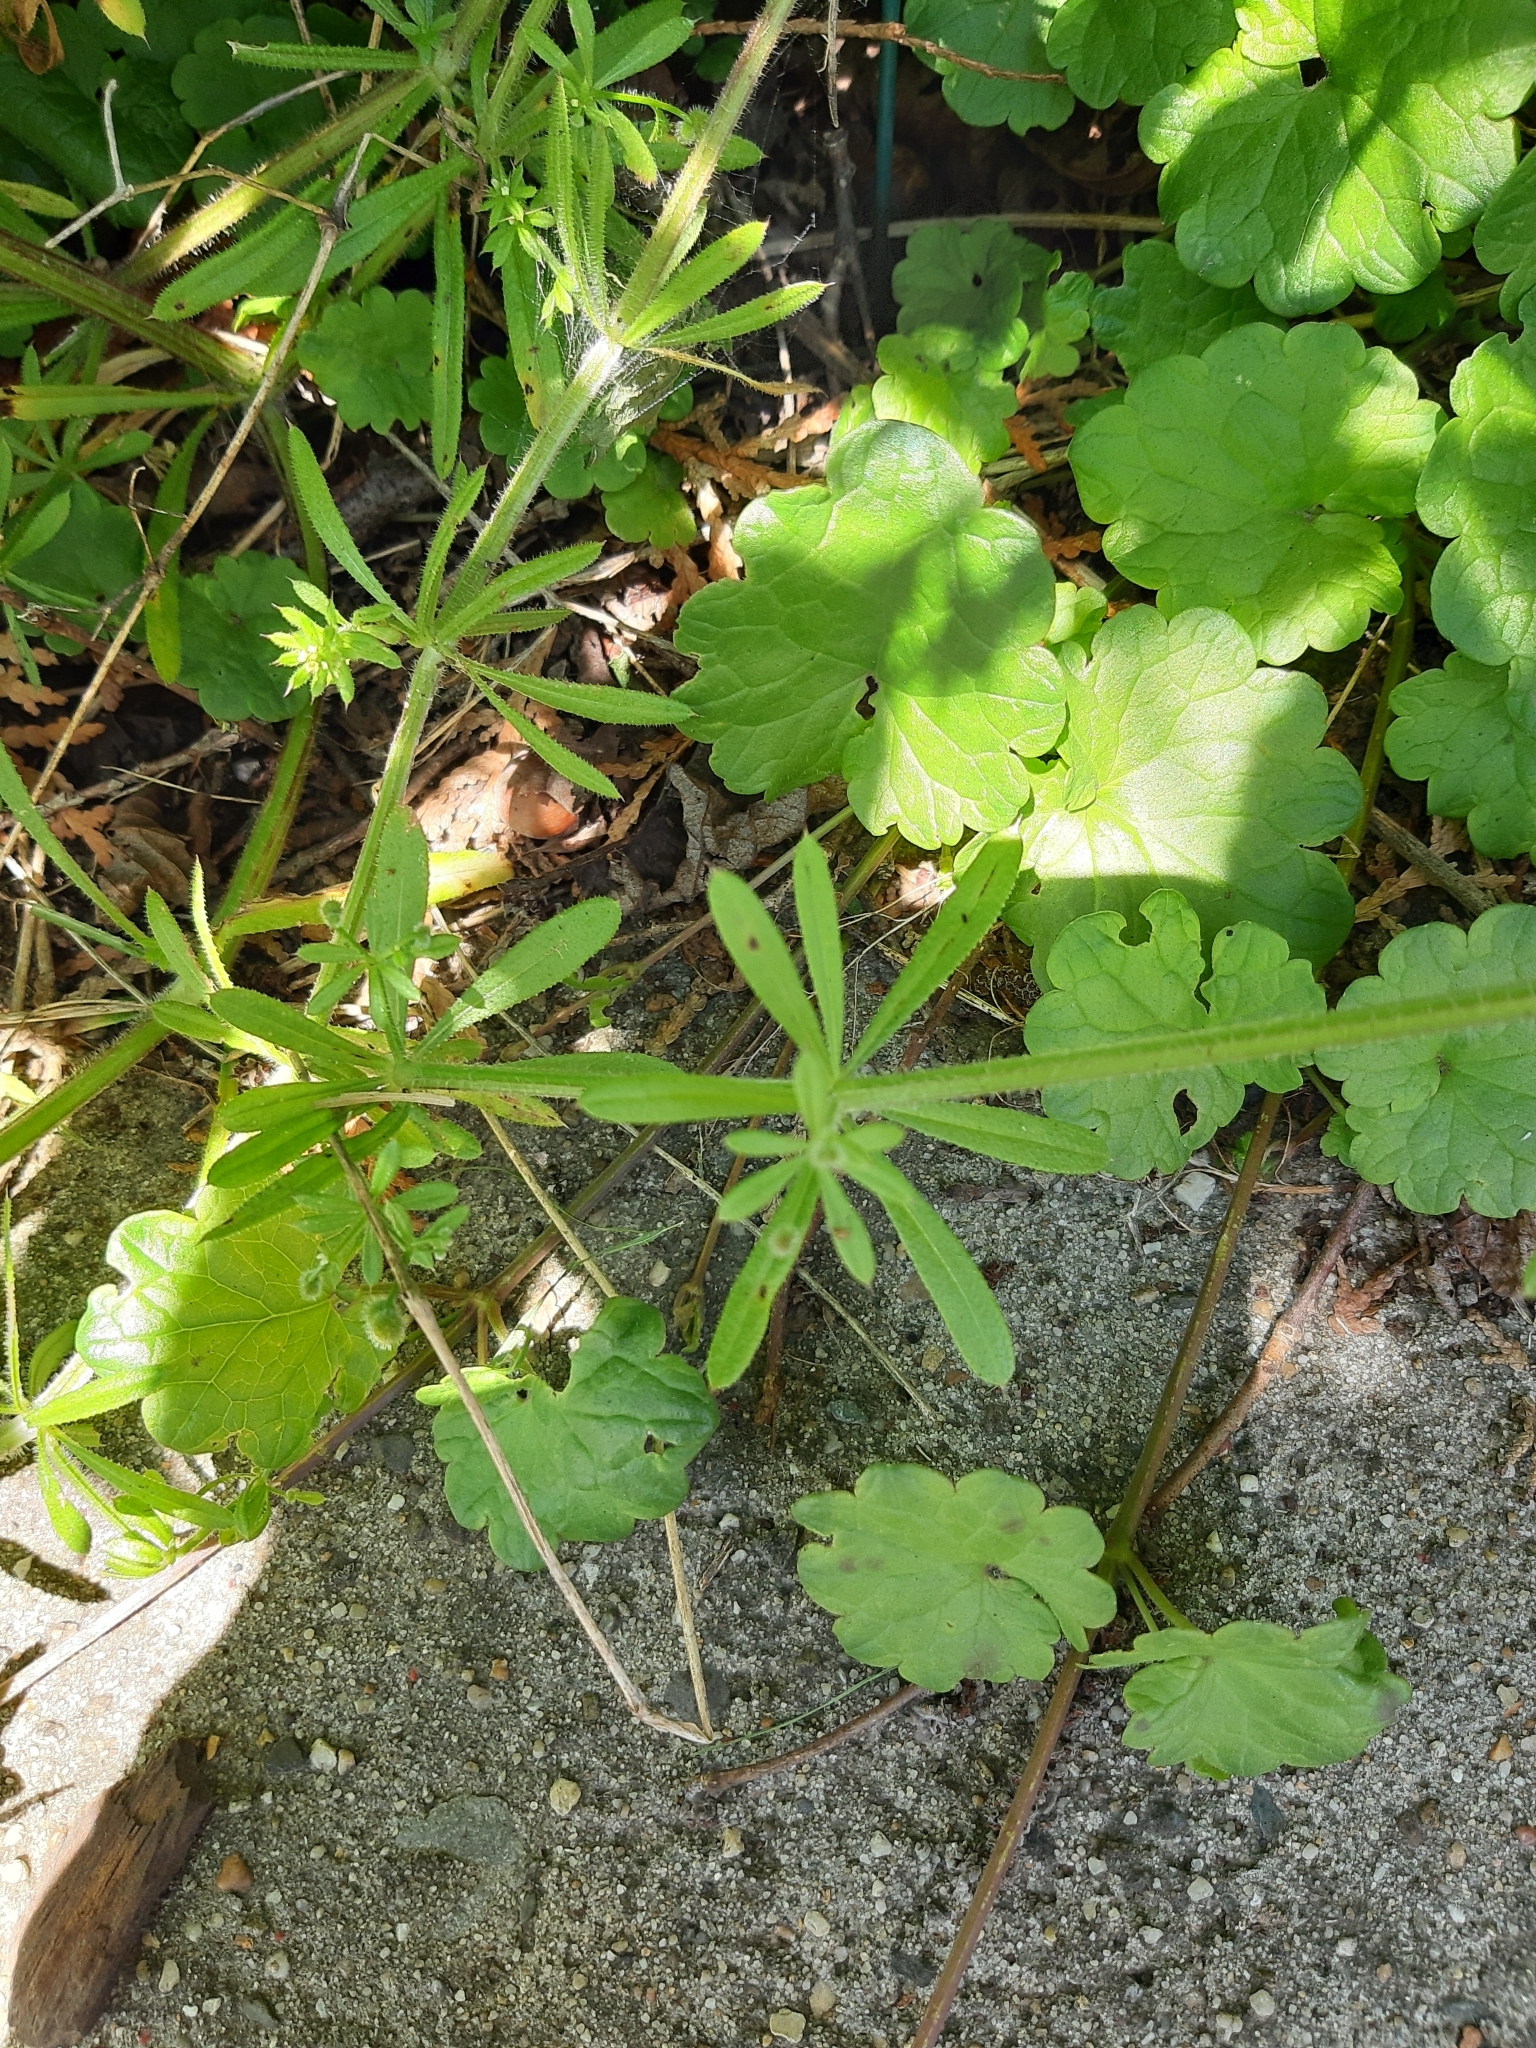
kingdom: Plantae
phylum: Tracheophyta
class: Magnoliopsida
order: Gentianales
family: Rubiaceae
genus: Galium
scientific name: Galium aparine
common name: Cleavers
